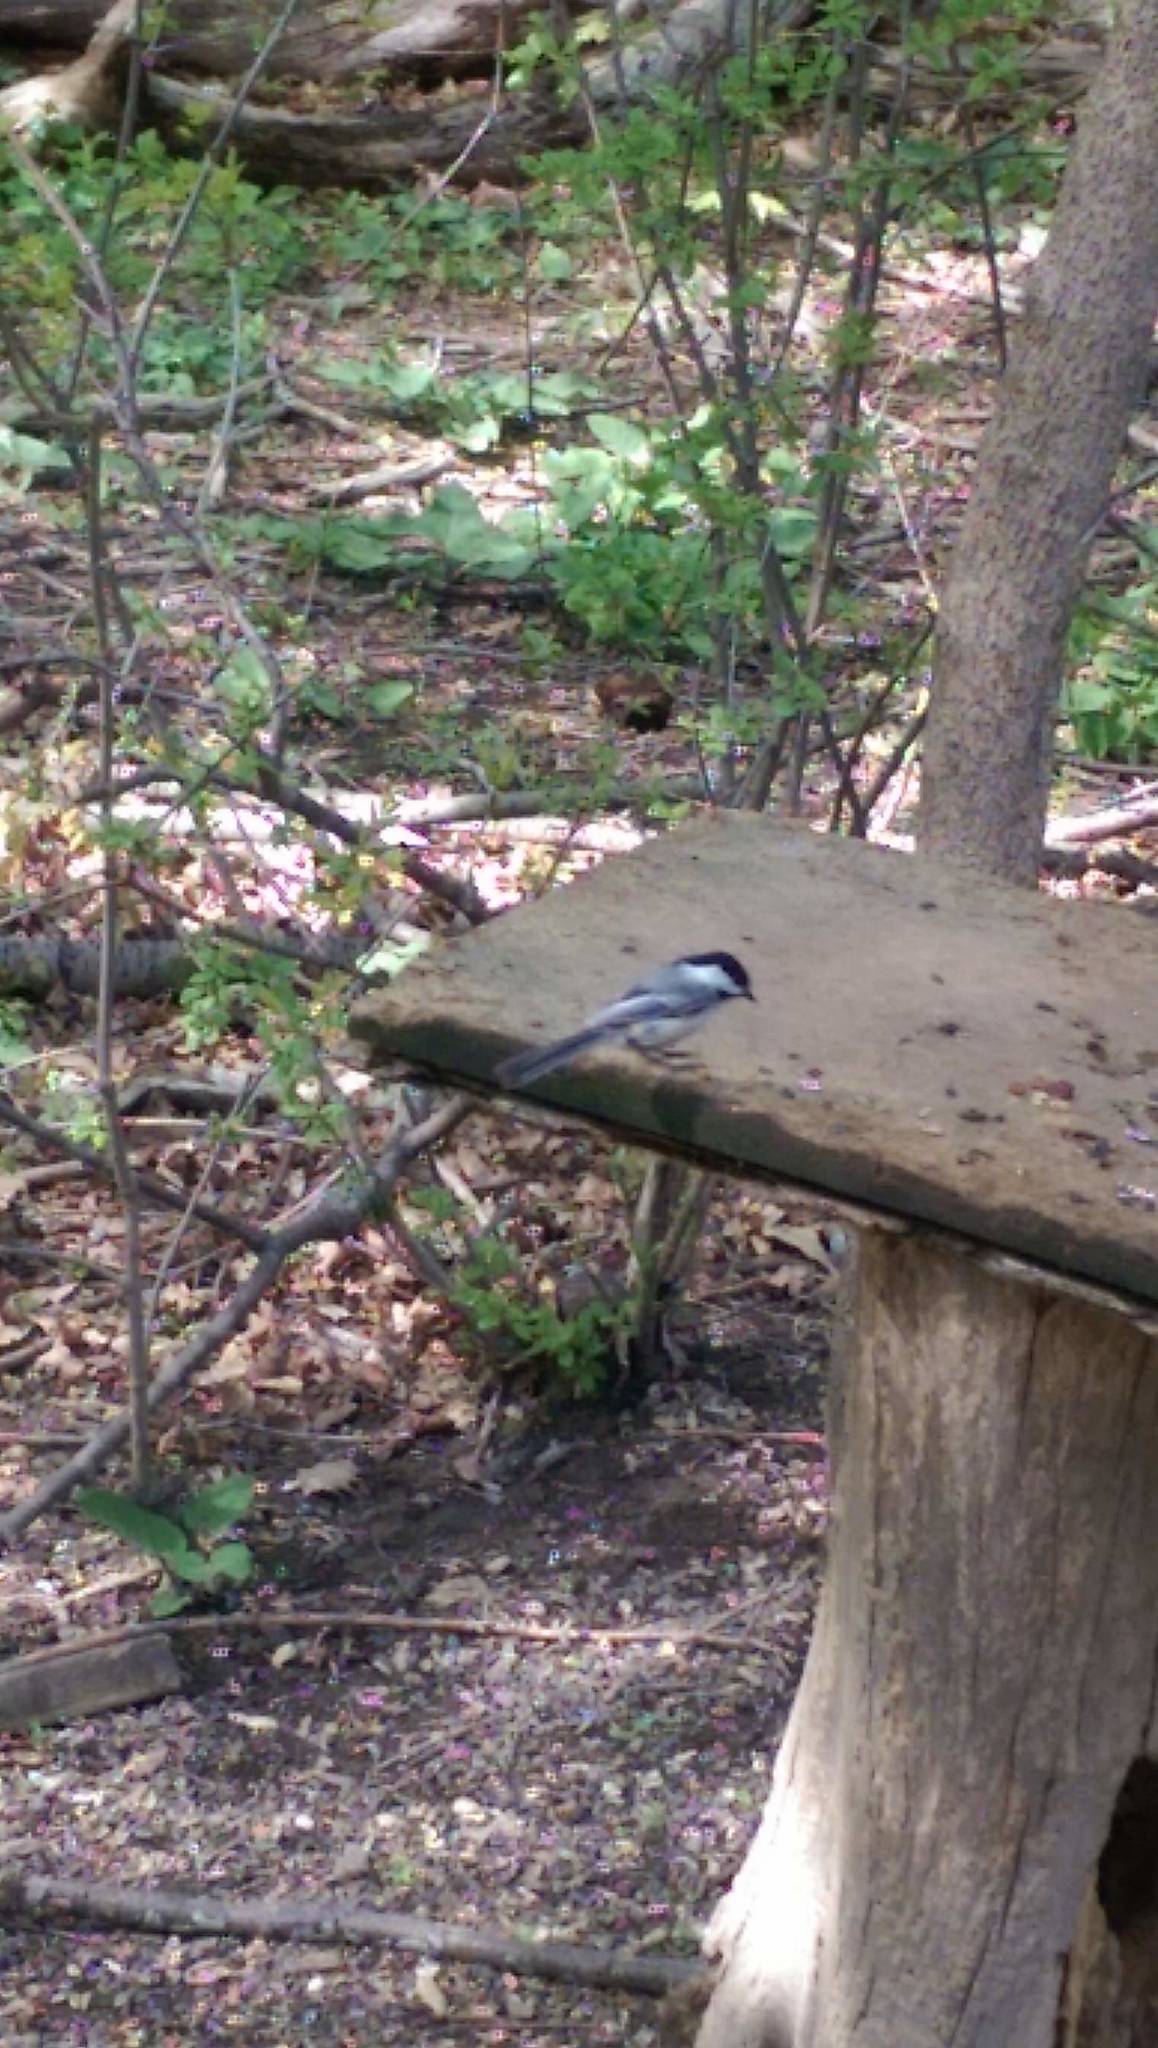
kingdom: Animalia
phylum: Chordata
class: Aves
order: Passeriformes
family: Paridae
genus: Poecile
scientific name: Poecile atricapillus
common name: Black-capped chickadee
